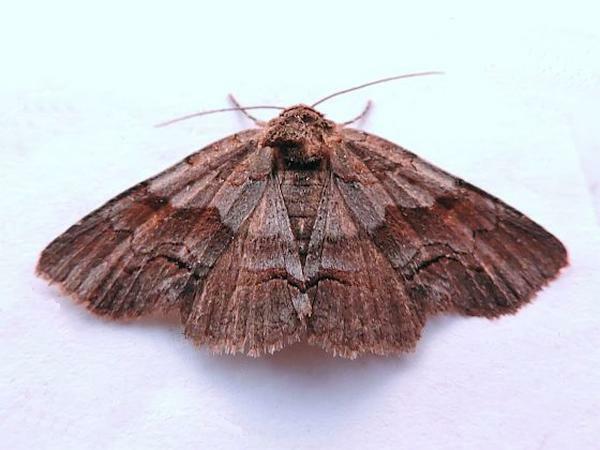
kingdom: Animalia
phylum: Arthropoda
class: Insecta
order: Lepidoptera
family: Erebidae
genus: Zale
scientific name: Zale squamularis
